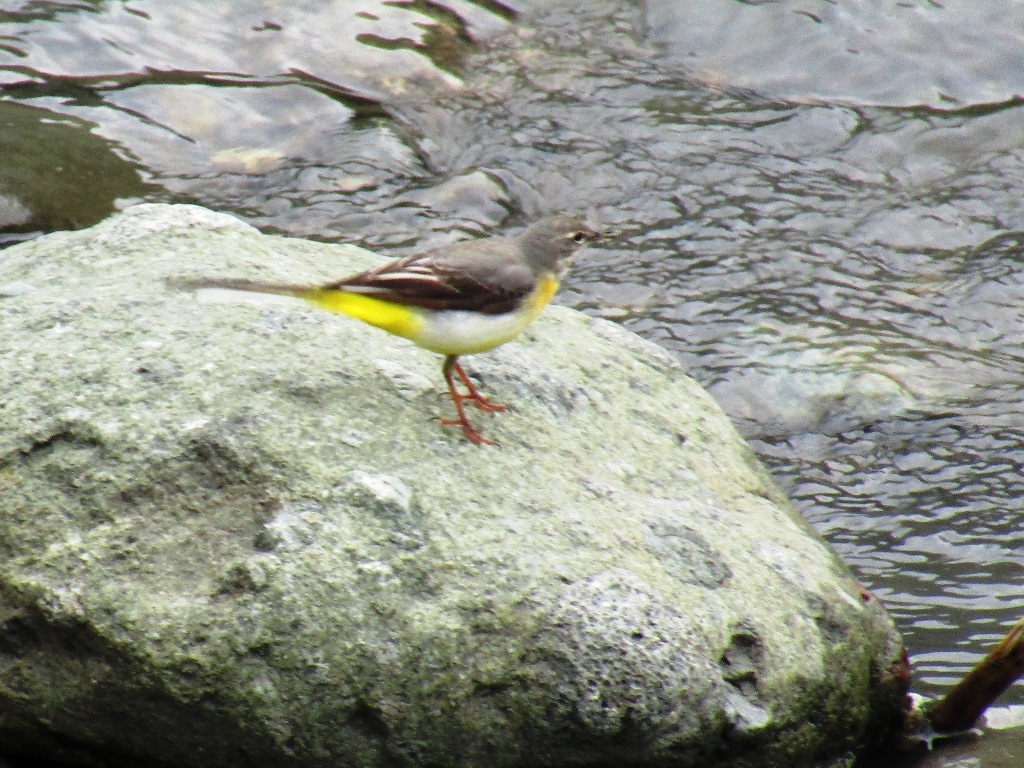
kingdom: Animalia
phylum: Chordata
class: Aves
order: Passeriformes
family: Motacillidae
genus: Motacilla
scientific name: Motacilla cinerea
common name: Grey wagtail
